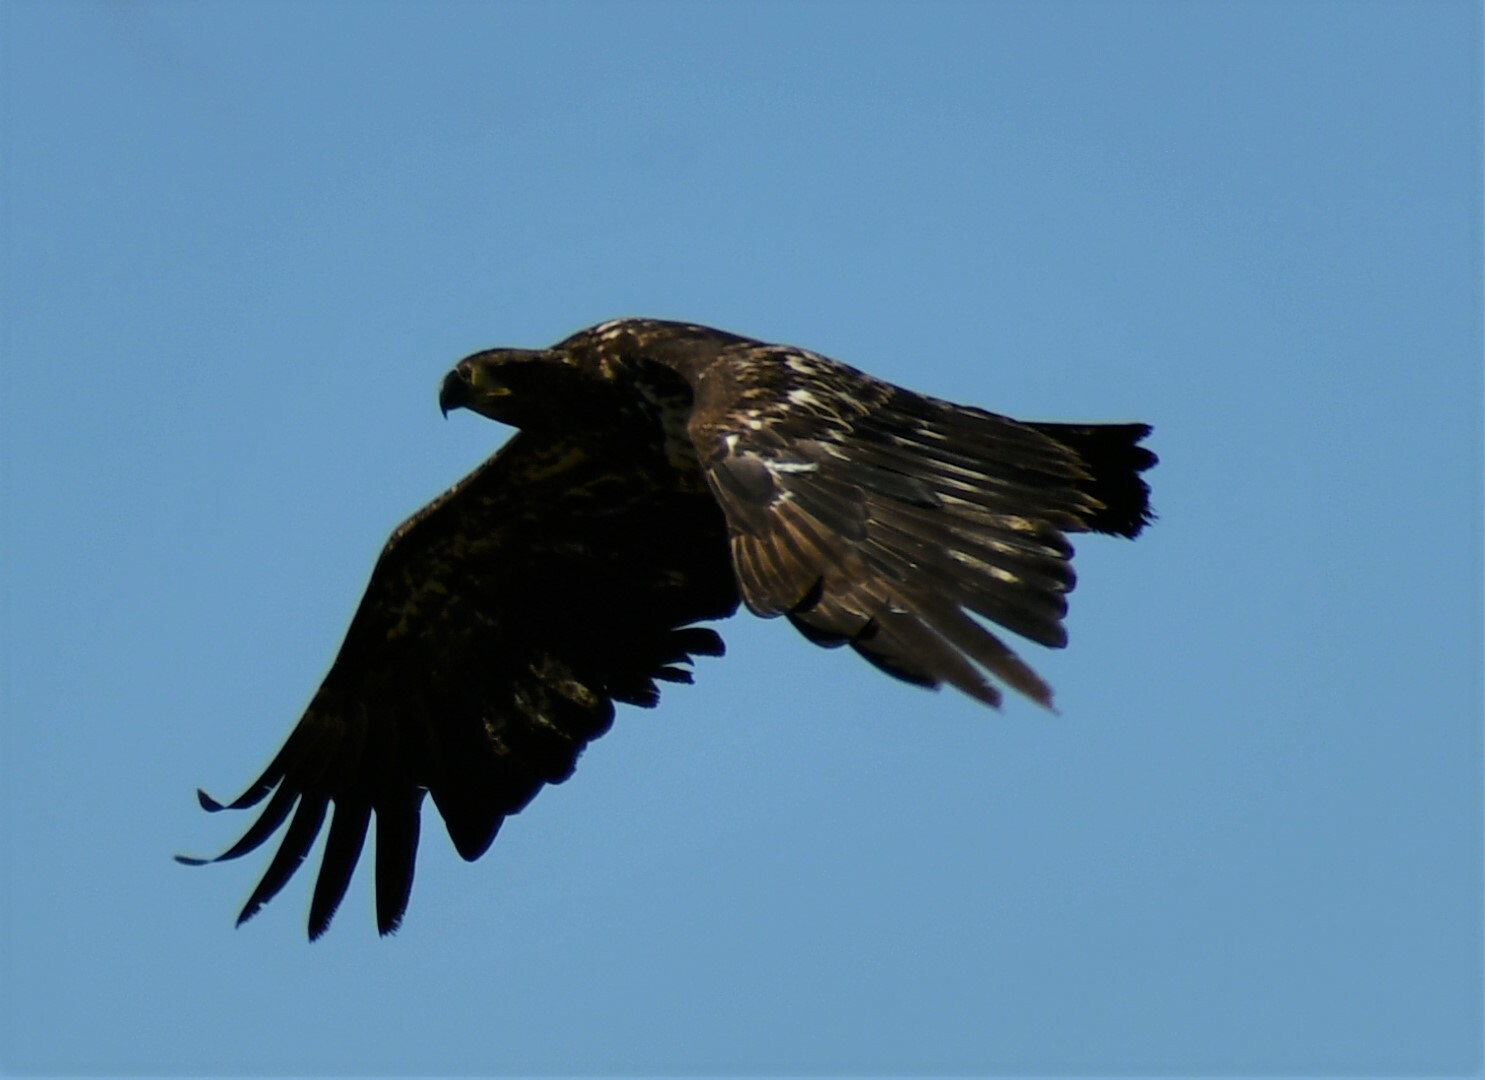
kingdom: Animalia
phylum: Chordata
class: Aves
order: Accipitriformes
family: Accipitridae
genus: Haliaeetus
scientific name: Haliaeetus leucocephalus
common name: Bald eagle
